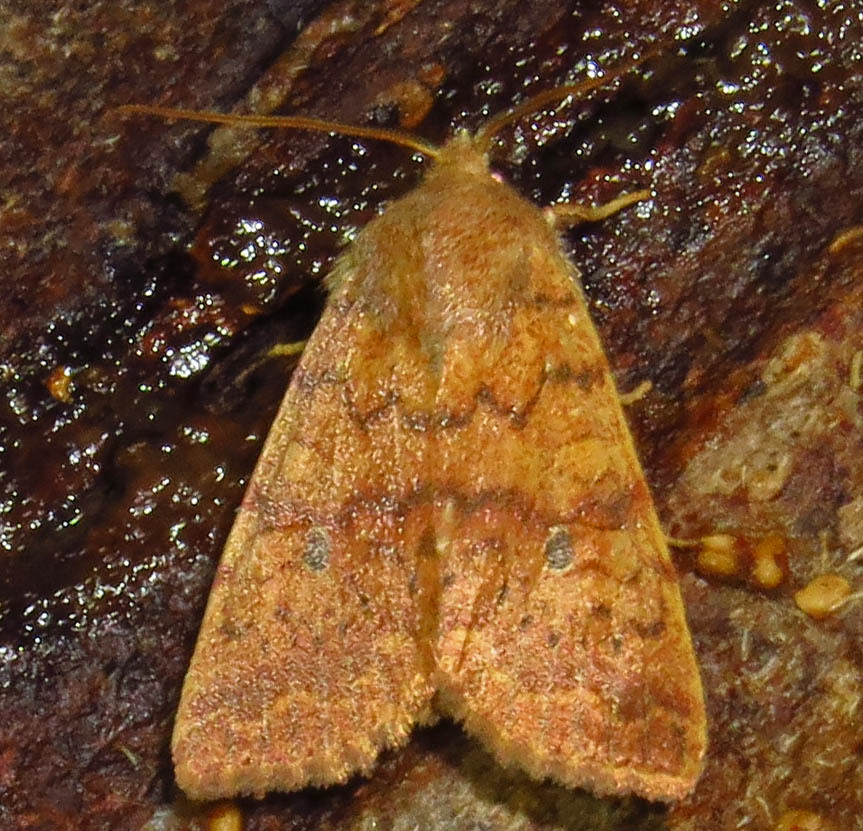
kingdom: Animalia
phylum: Arthropoda
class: Insecta
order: Lepidoptera
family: Noctuidae
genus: Agrochola
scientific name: Agrochola bicolorago
